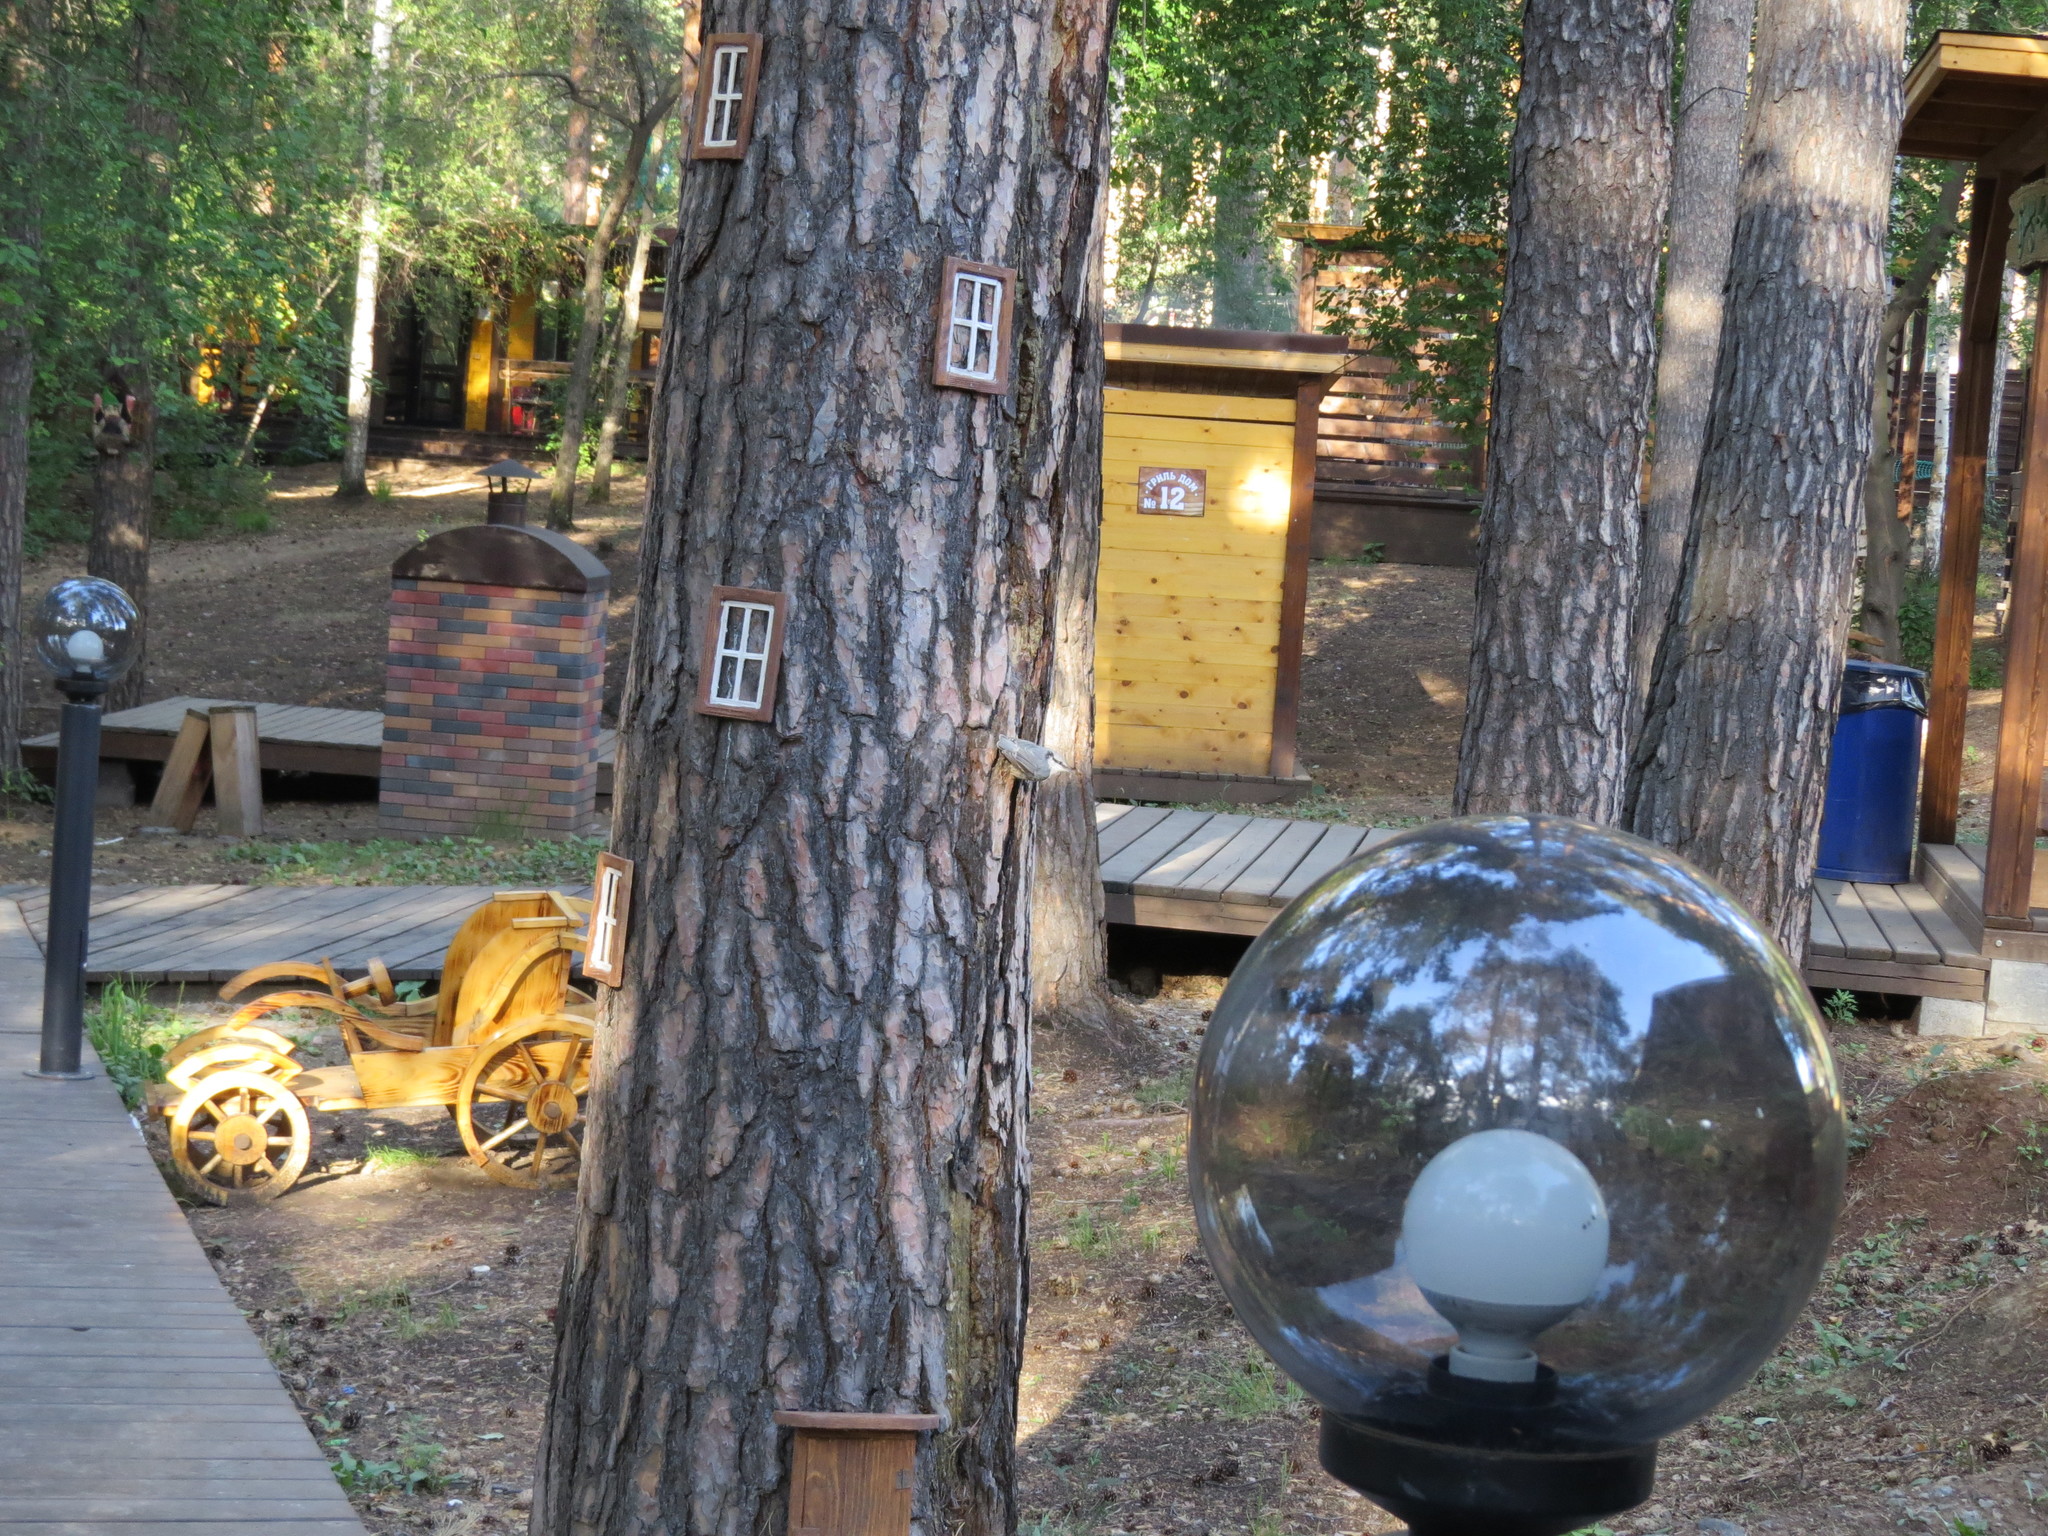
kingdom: Animalia
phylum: Chordata
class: Aves
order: Passeriformes
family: Sittidae
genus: Sitta
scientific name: Sitta europaea
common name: Eurasian nuthatch
